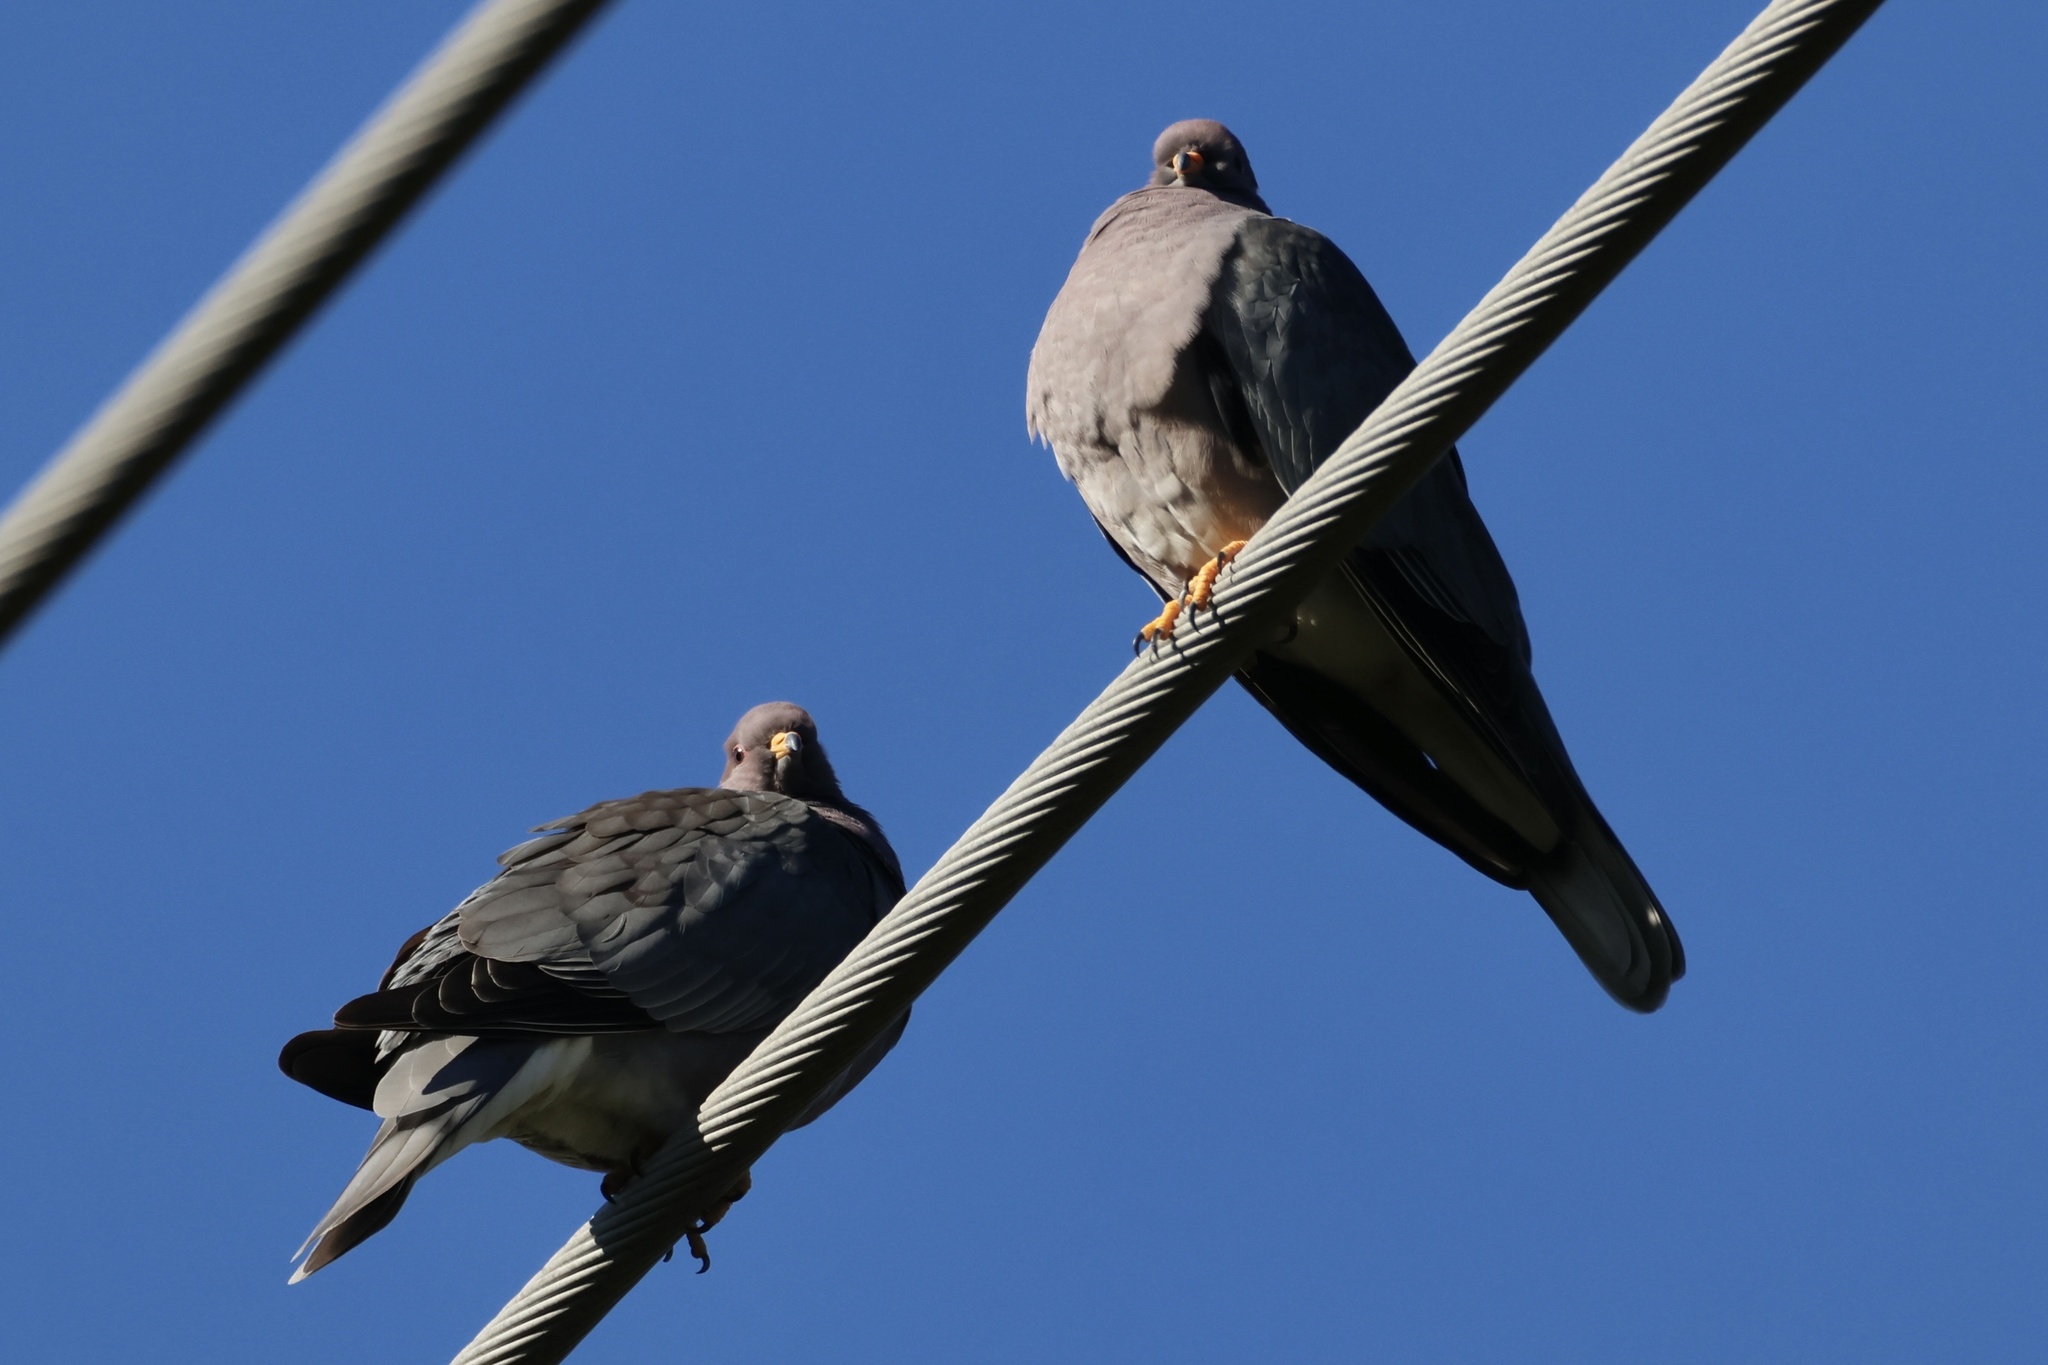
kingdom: Animalia
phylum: Chordata
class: Aves
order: Columbiformes
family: Columbidae
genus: Patagioenas
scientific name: Patagioenas fasciata
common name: Band-tailed pigeon
